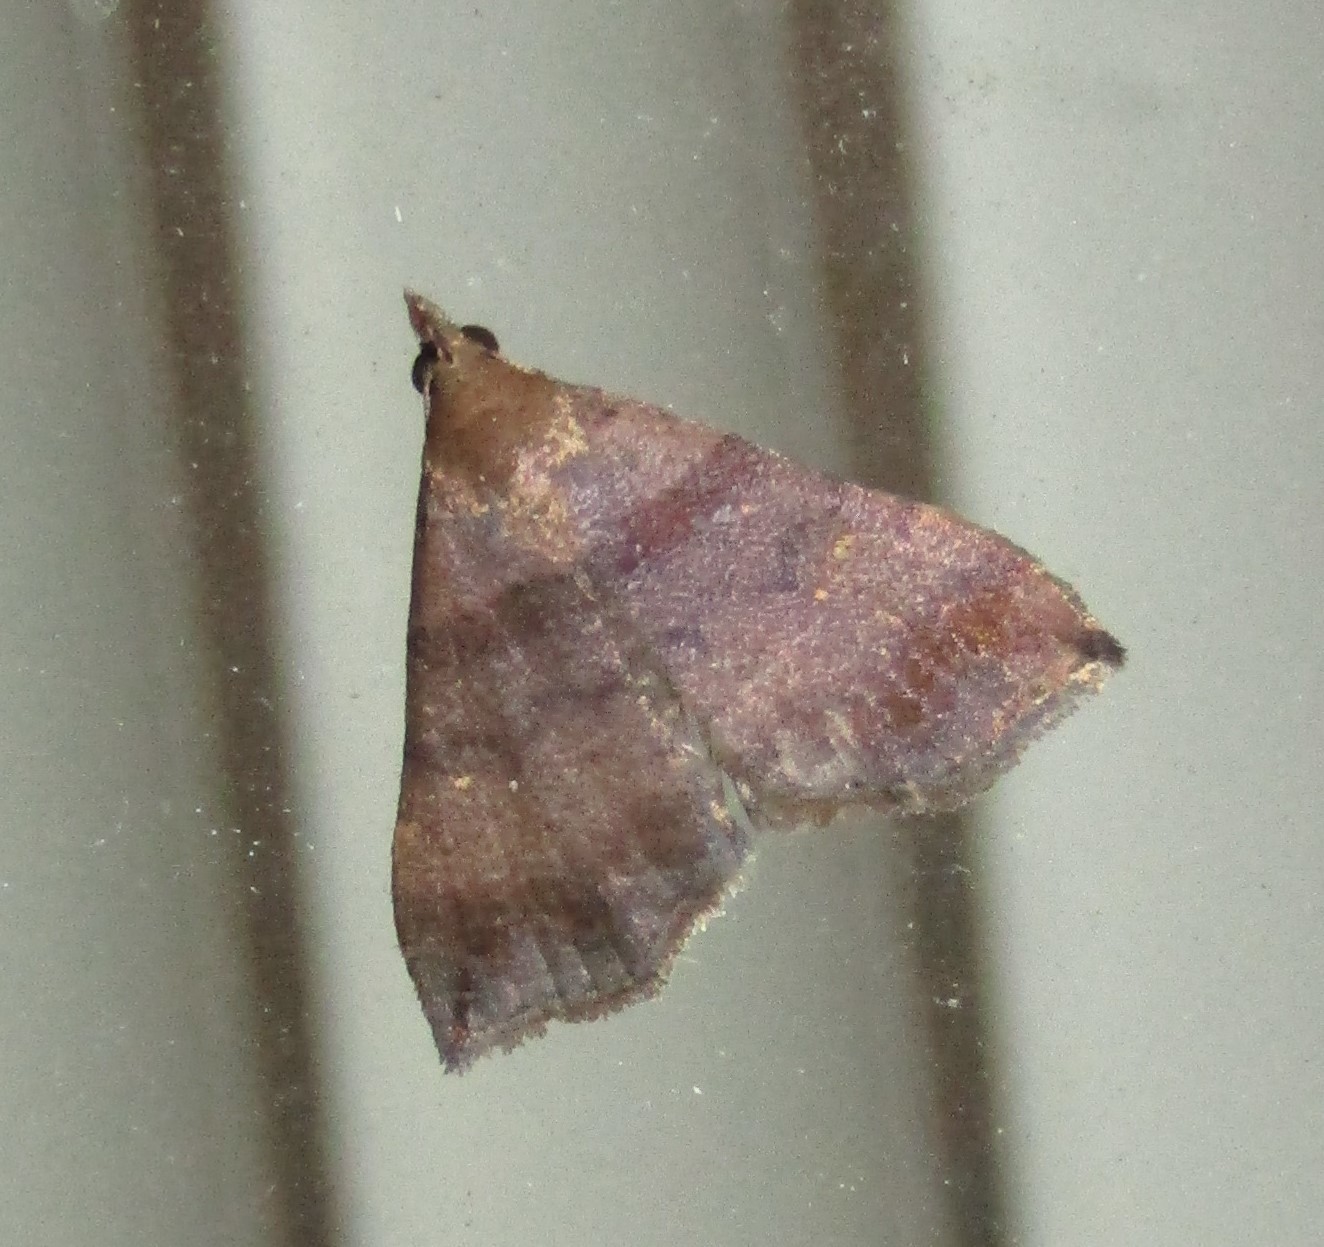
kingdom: Animalia
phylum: Arthropoda
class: Insecta
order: Lepidoptera
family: Erebidae
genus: Lascoria
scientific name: Lascoria ambigualis
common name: Ambiguous moth
